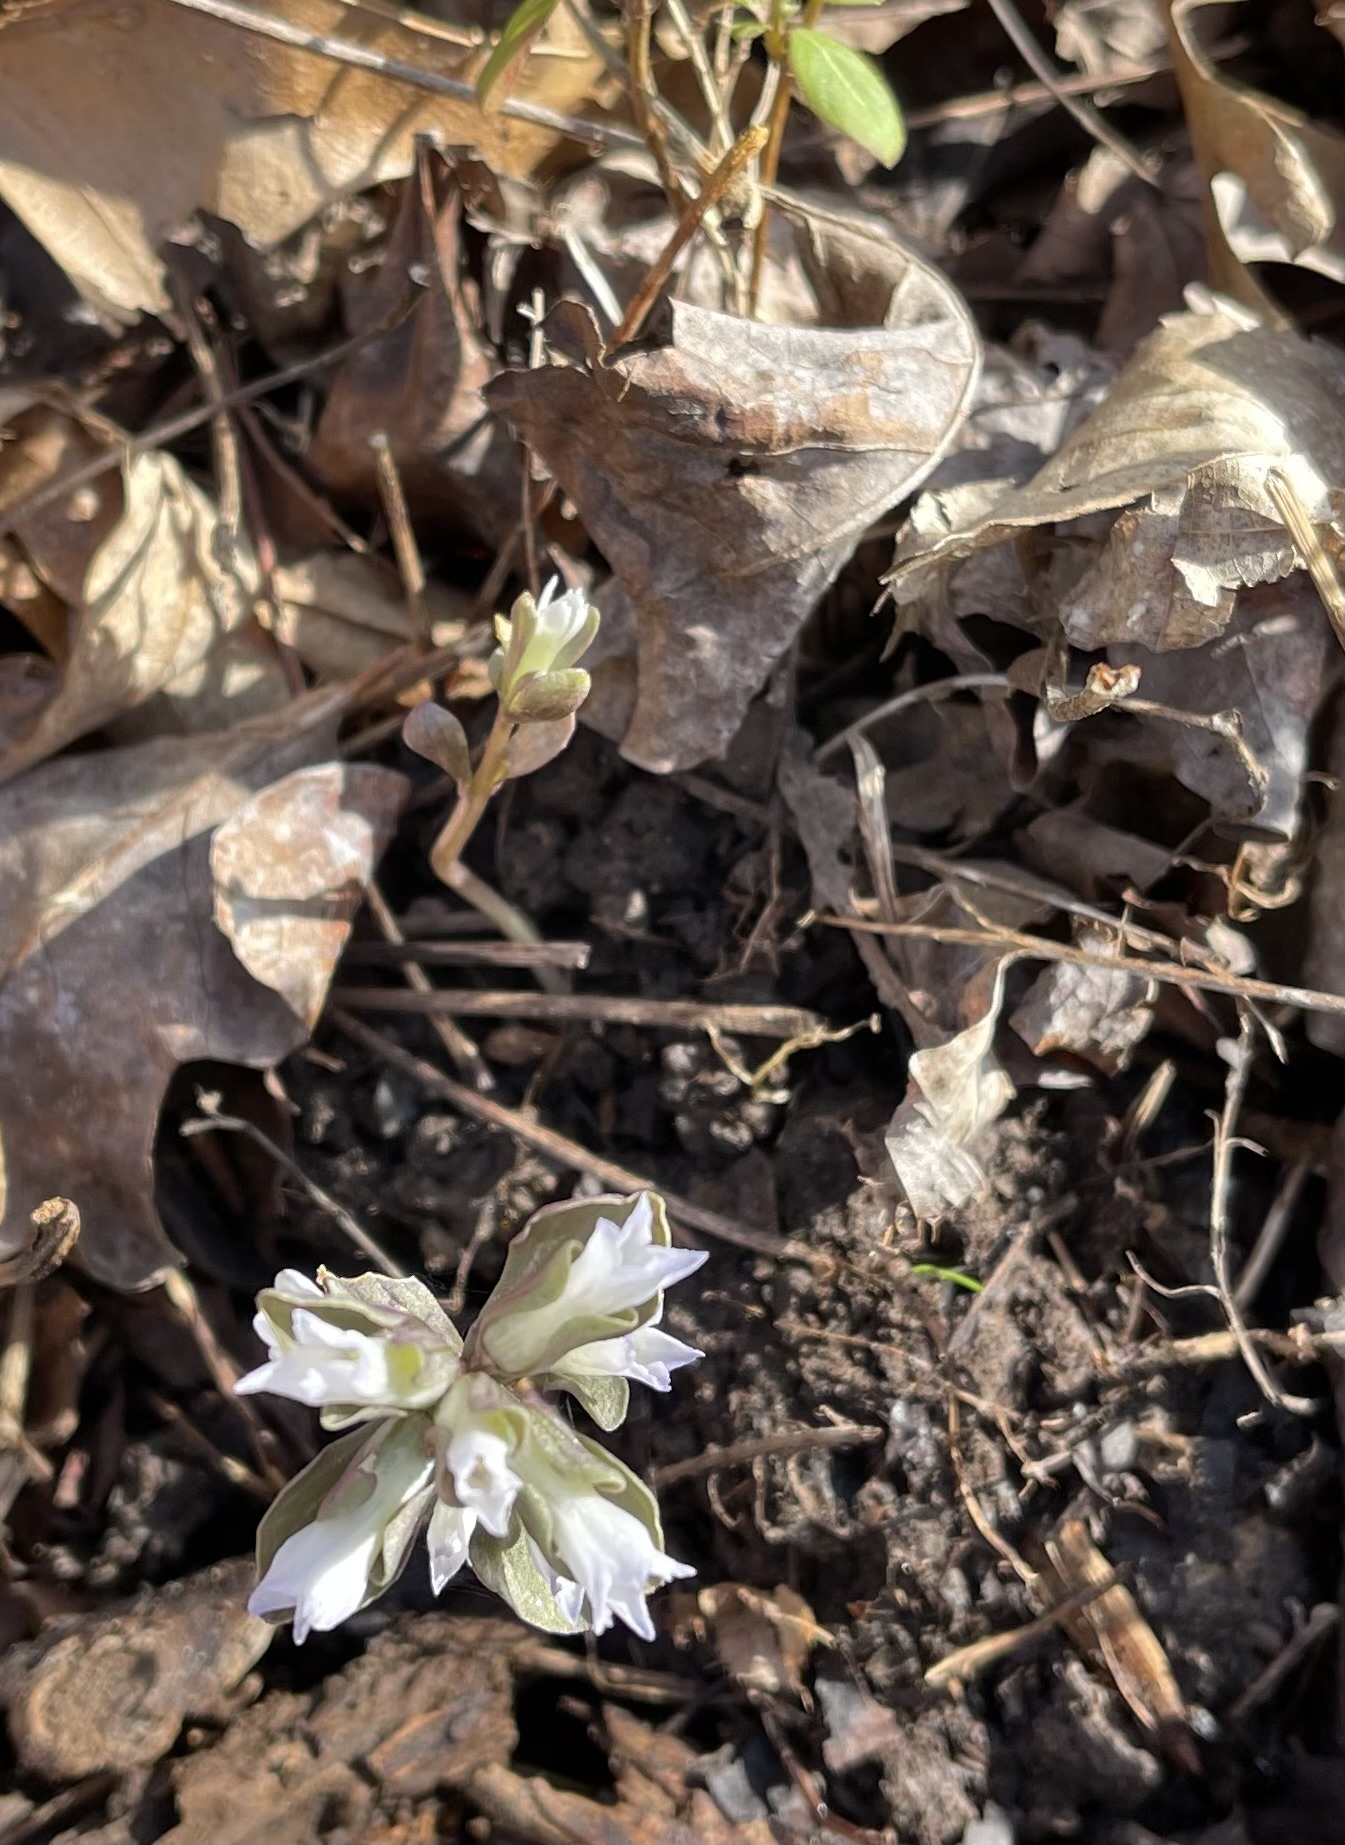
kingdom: Plantae
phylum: Tracheophyta
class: Magnoliopsida
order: Gentianales
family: Gentianaceae
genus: Obolaria
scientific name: Obolaria virginica
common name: Pennywort
